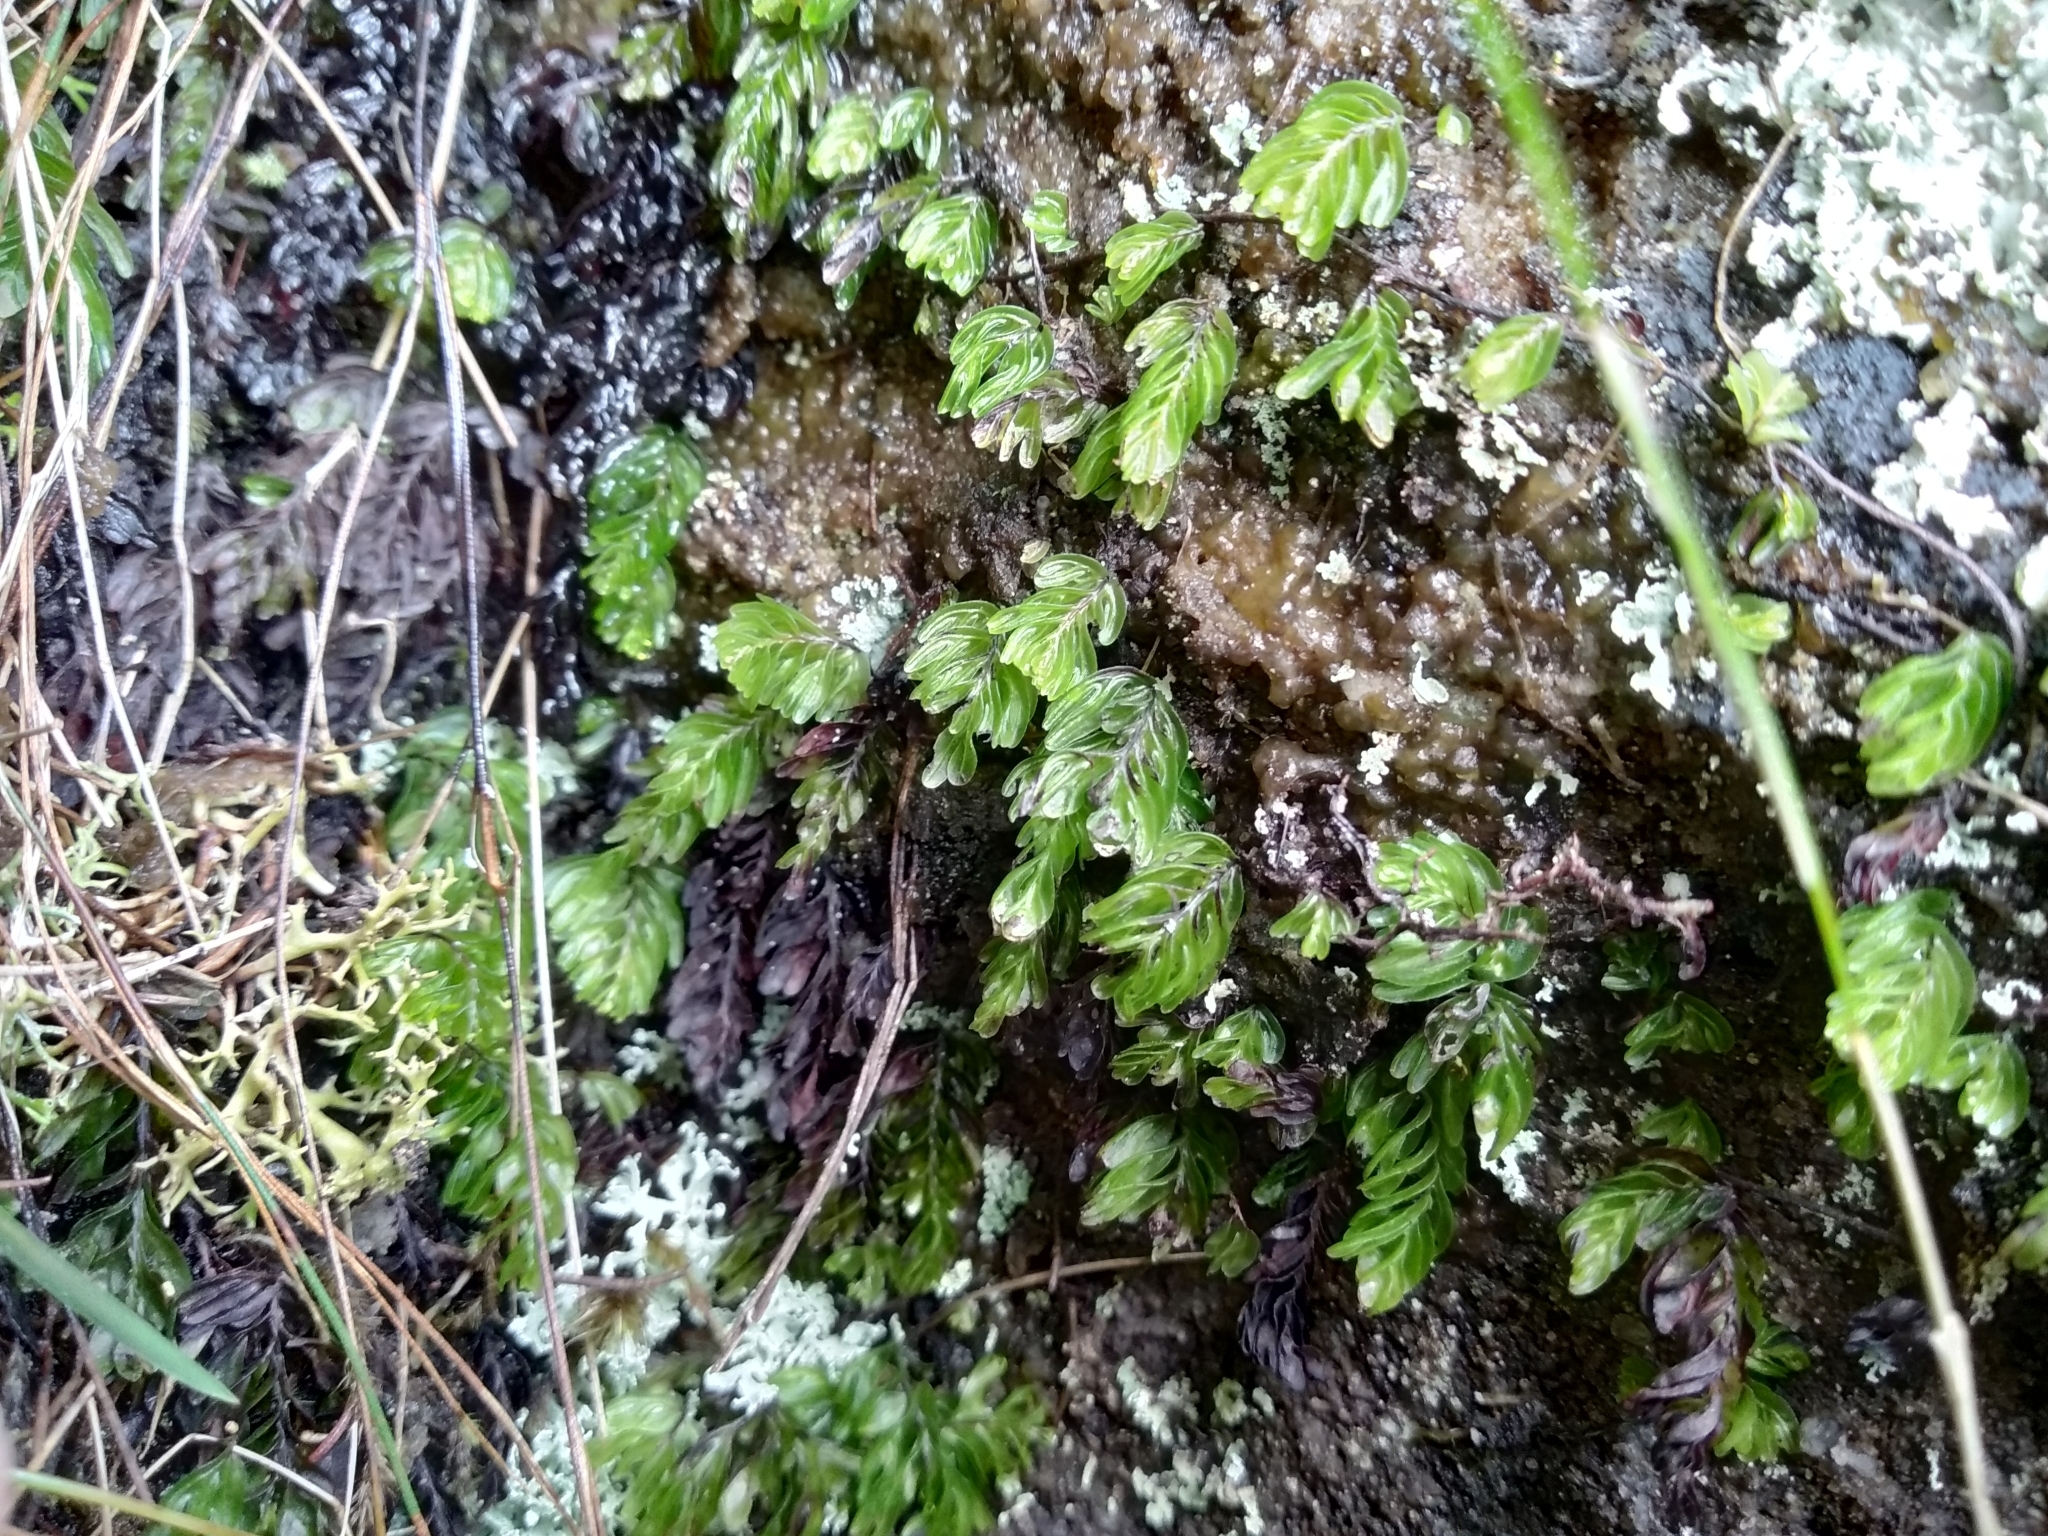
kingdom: Plantae
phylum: Tracheophyta
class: Polypodiopsida
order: Hymenophyllales
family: Hymenophyllaceae
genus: Hymenophyllum
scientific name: Hymenophyllum capense
